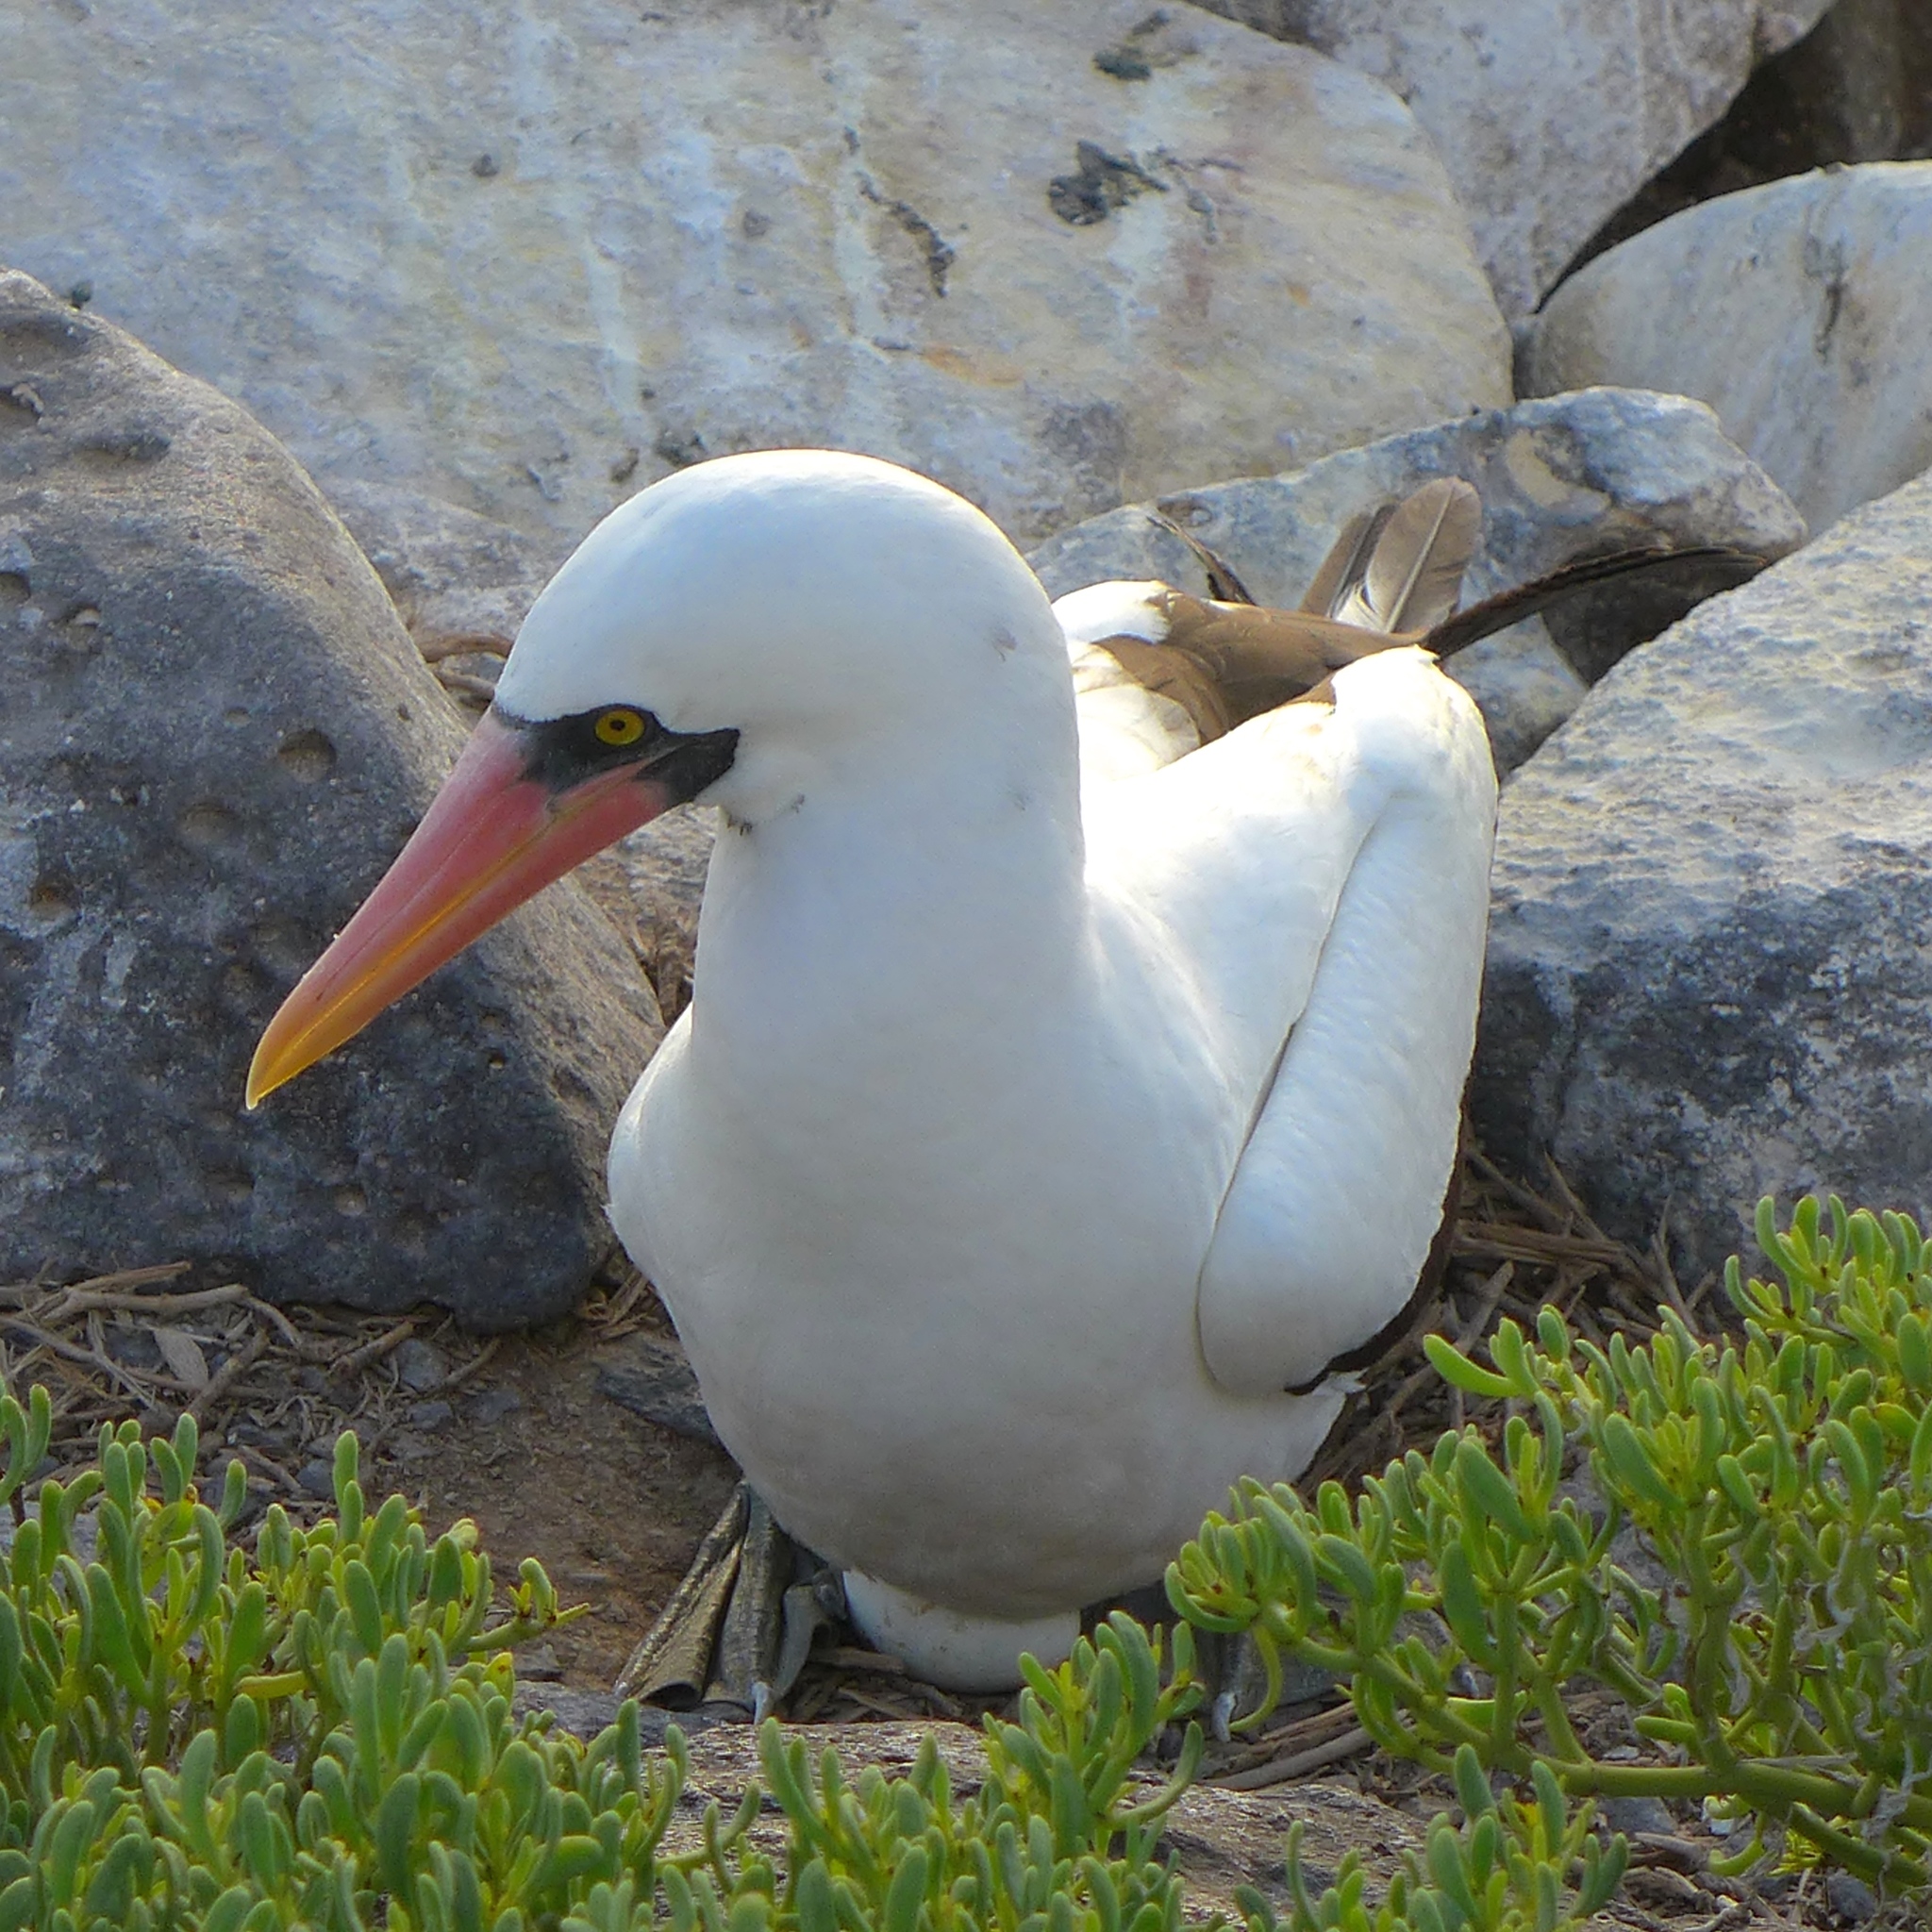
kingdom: Animalia
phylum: Chordata
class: Aves
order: Suliformes
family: Sulidae
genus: Sula
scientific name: Sula granti
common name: Nazca booby
